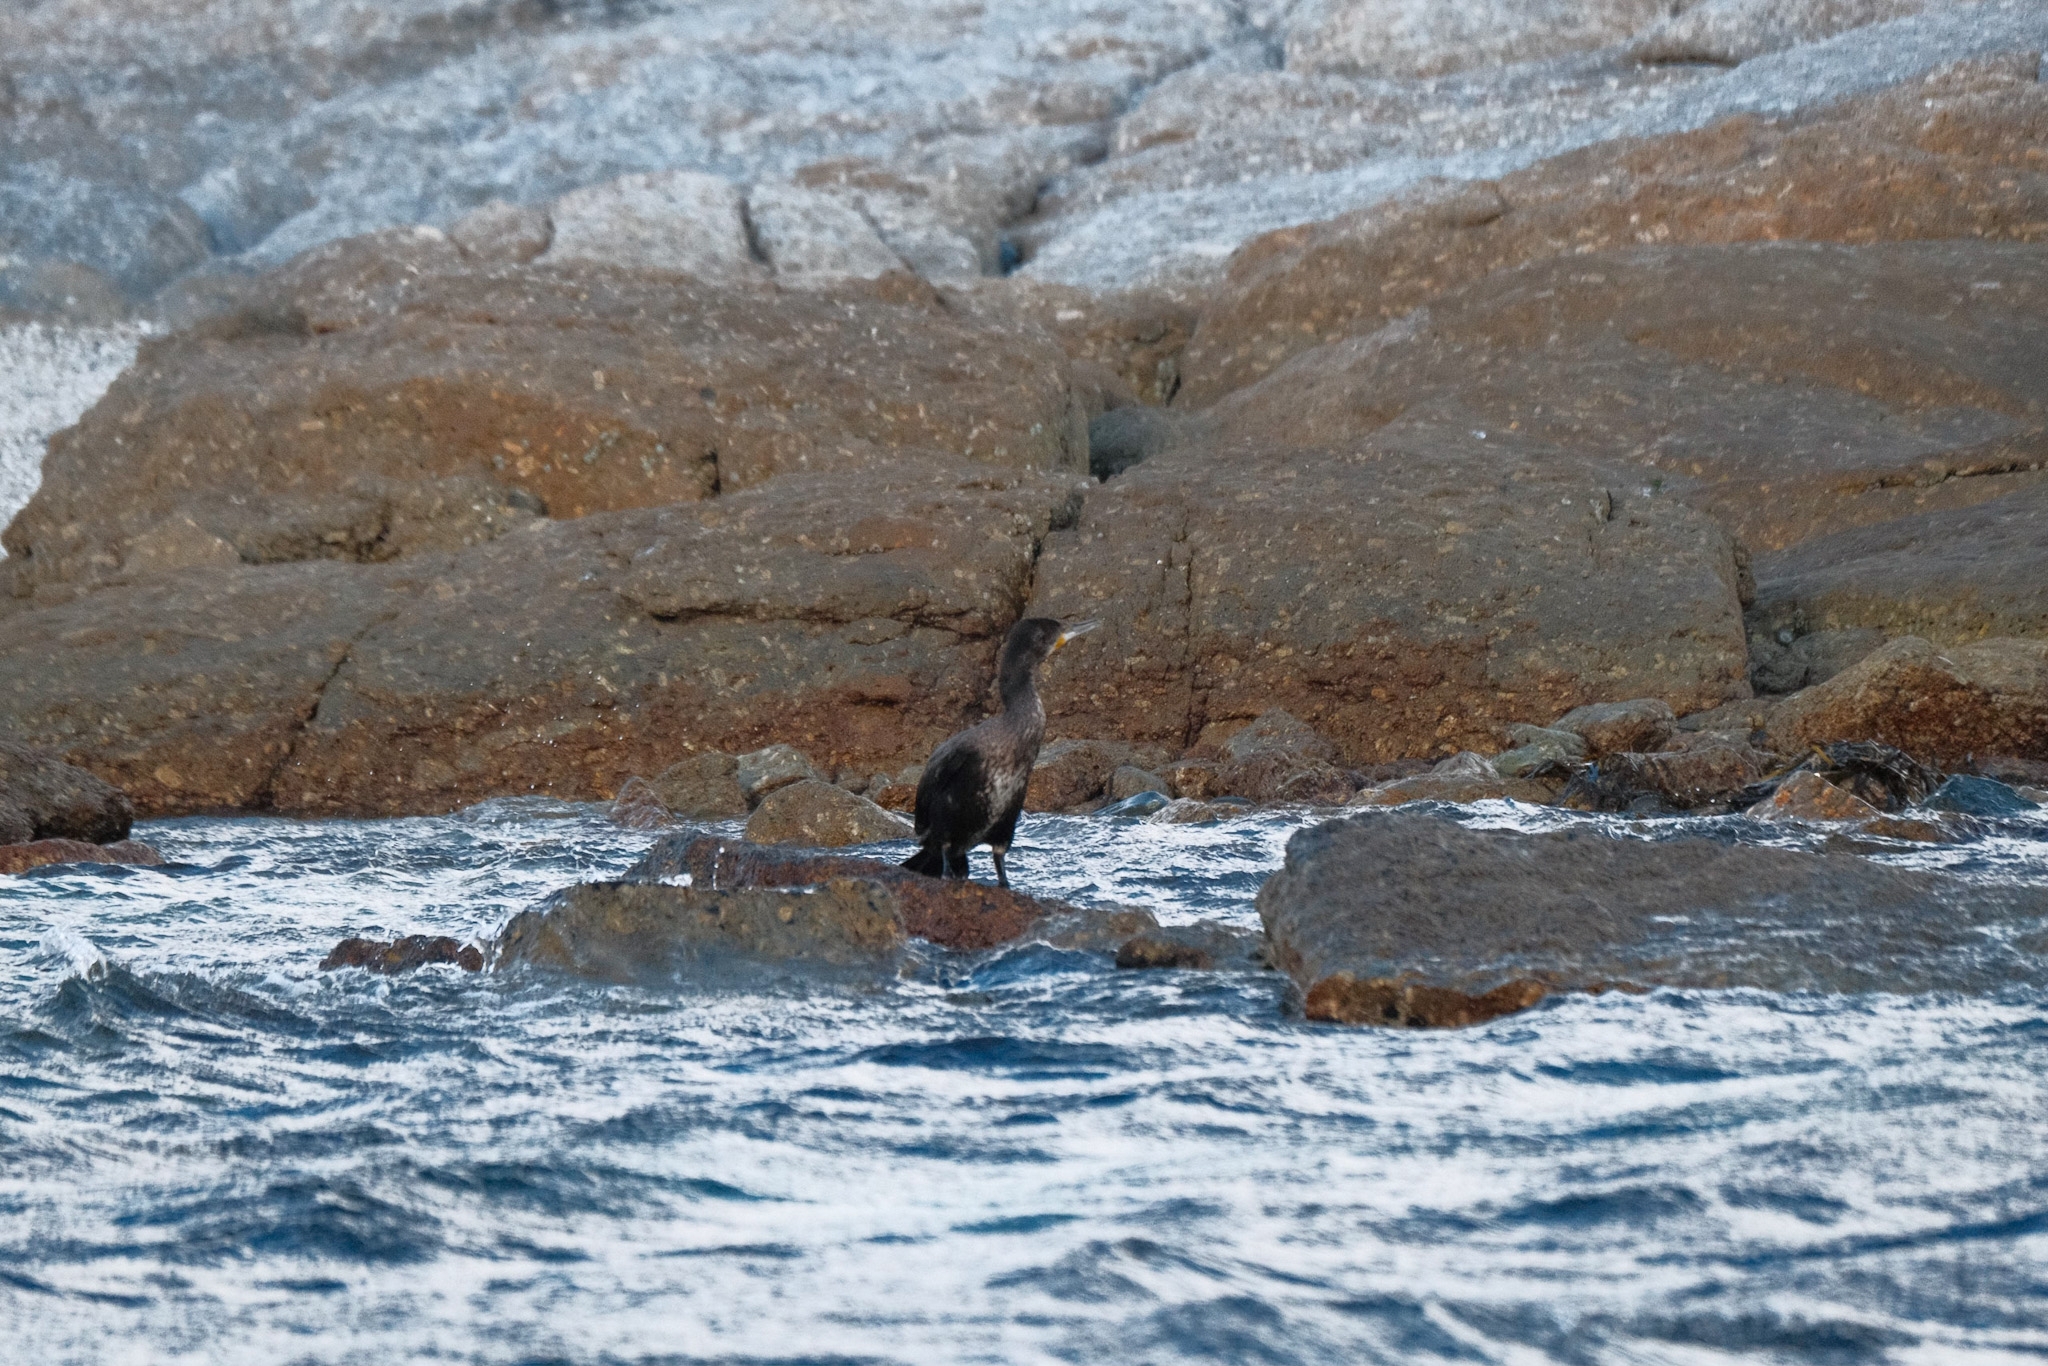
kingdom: Animalia
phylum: Chordata
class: Aves
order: Suliformes
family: Phalacrocoracidae
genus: Phalacrocorax
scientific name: Phalacrocorax carbo
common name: Great cormorant
